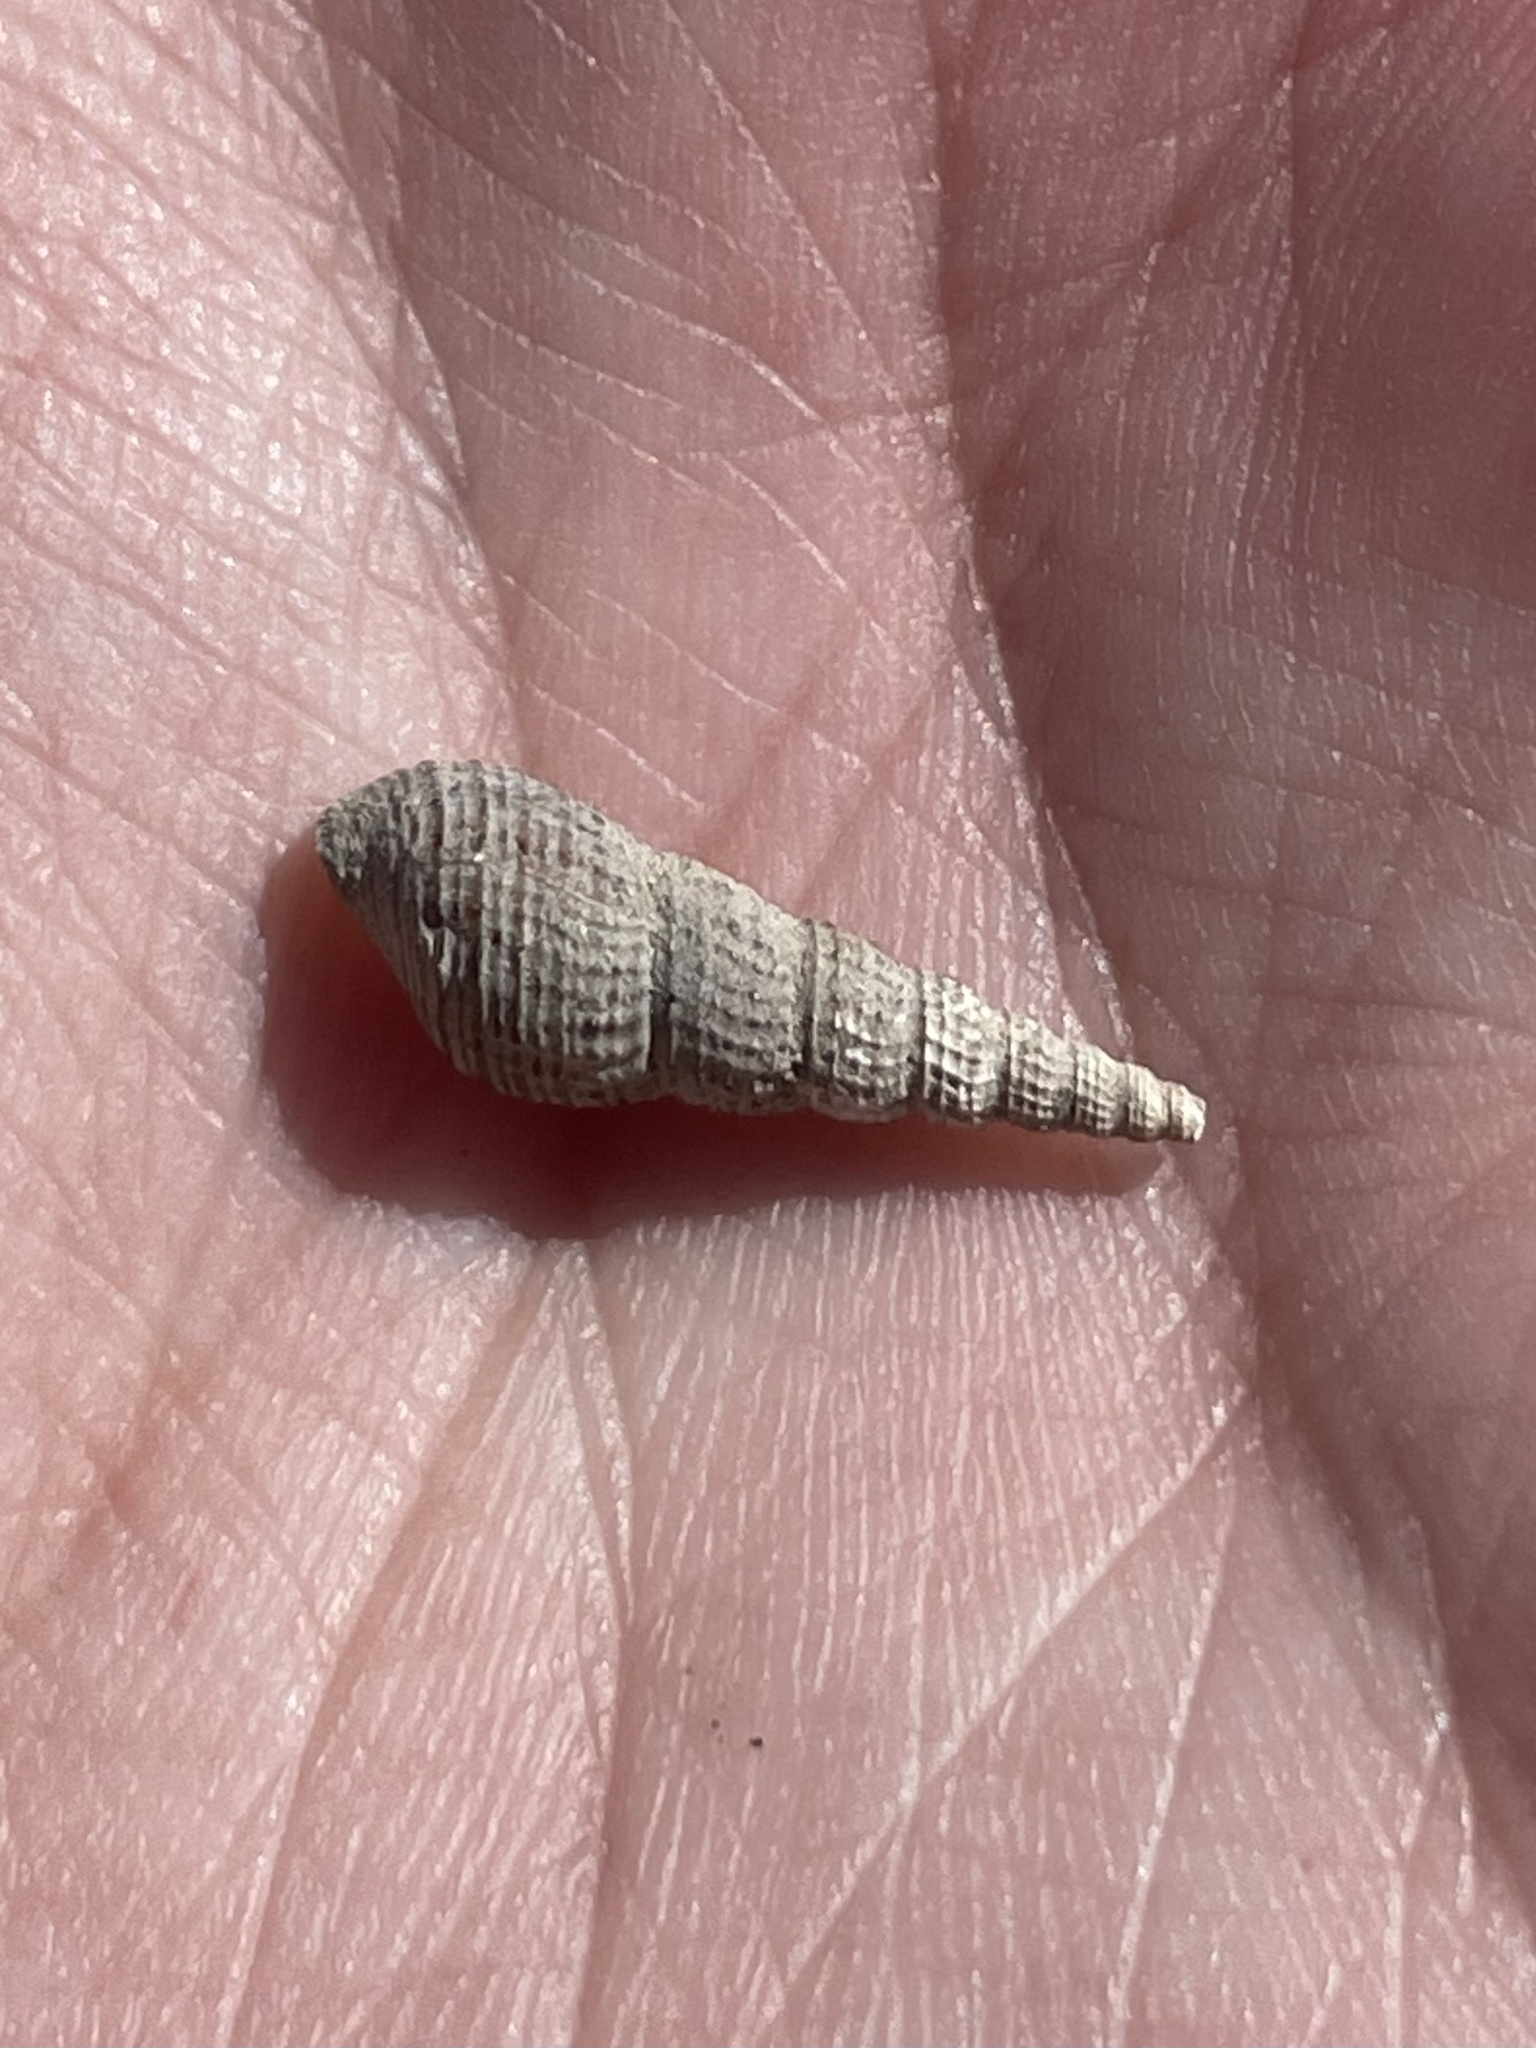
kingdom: Animalia
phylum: Mollusca
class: Gastropoda
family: Thiaridae
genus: Melanoides
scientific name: Melanoides tuberculata
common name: Red-rim melania
